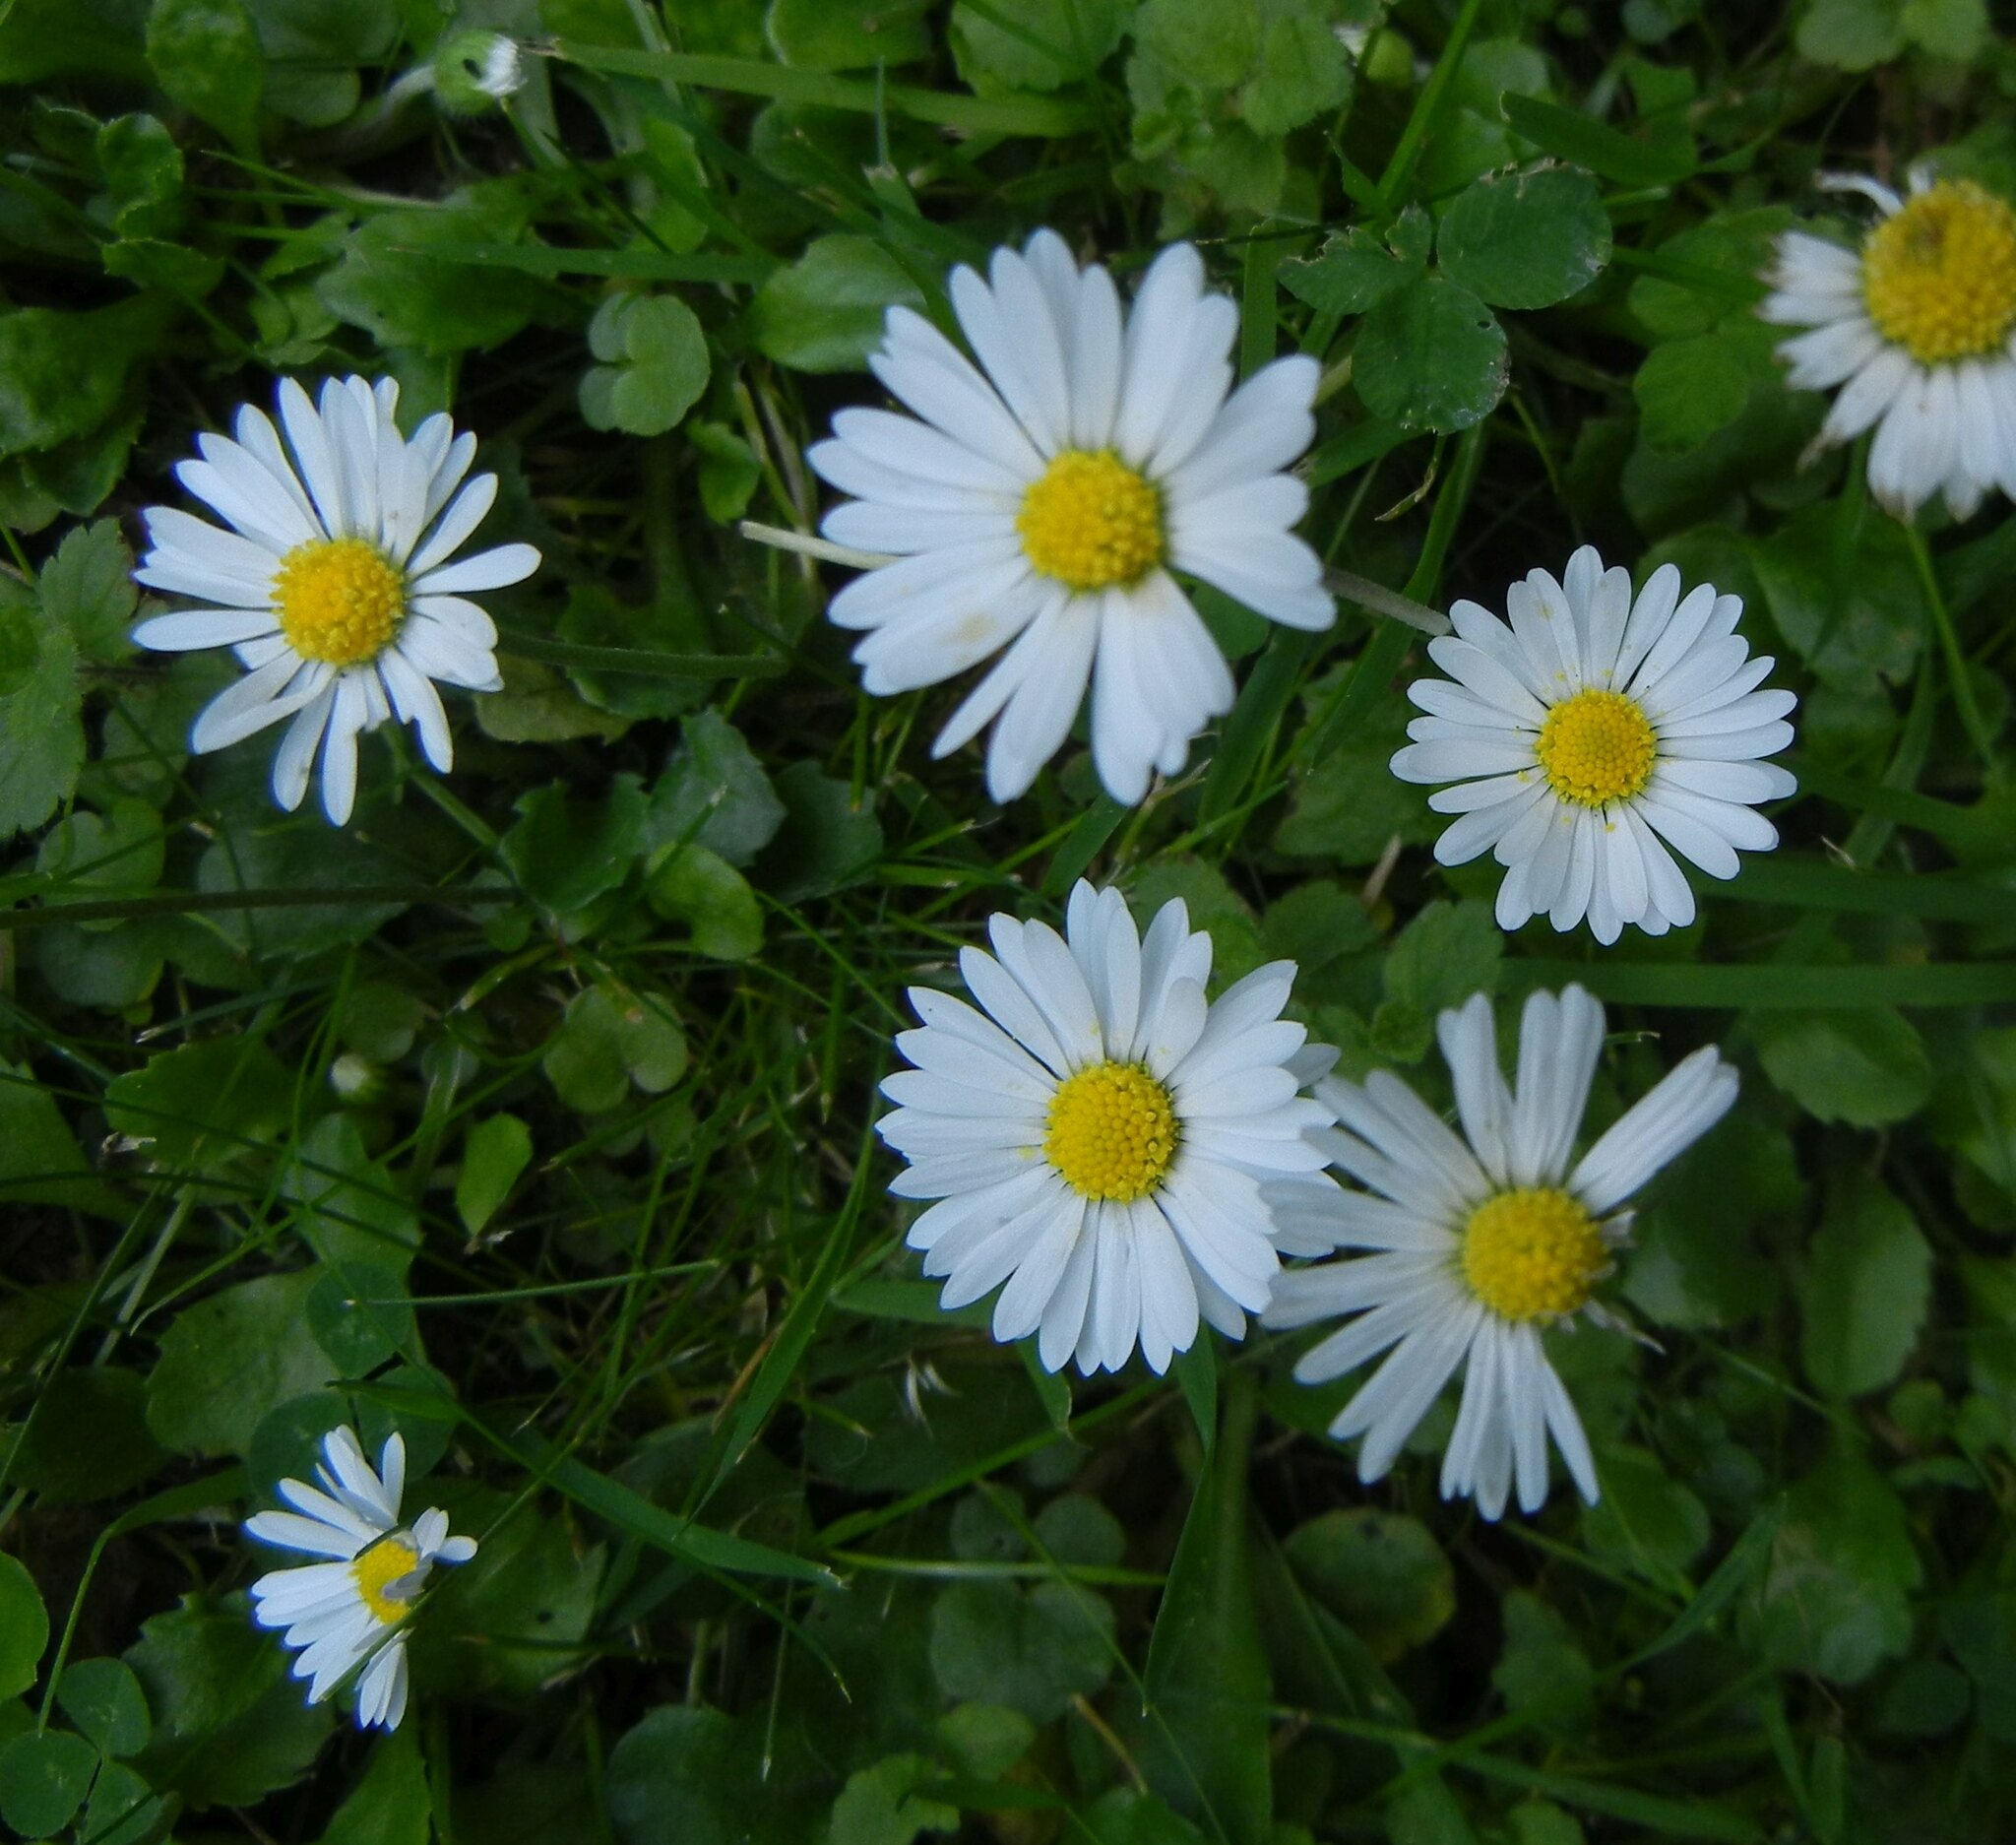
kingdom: Plantae
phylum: Tracheophyta
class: Magnoliopsida
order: Asterales
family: Asteraceae
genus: Bellis
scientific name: Bellis perennis
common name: Lawndaisy
